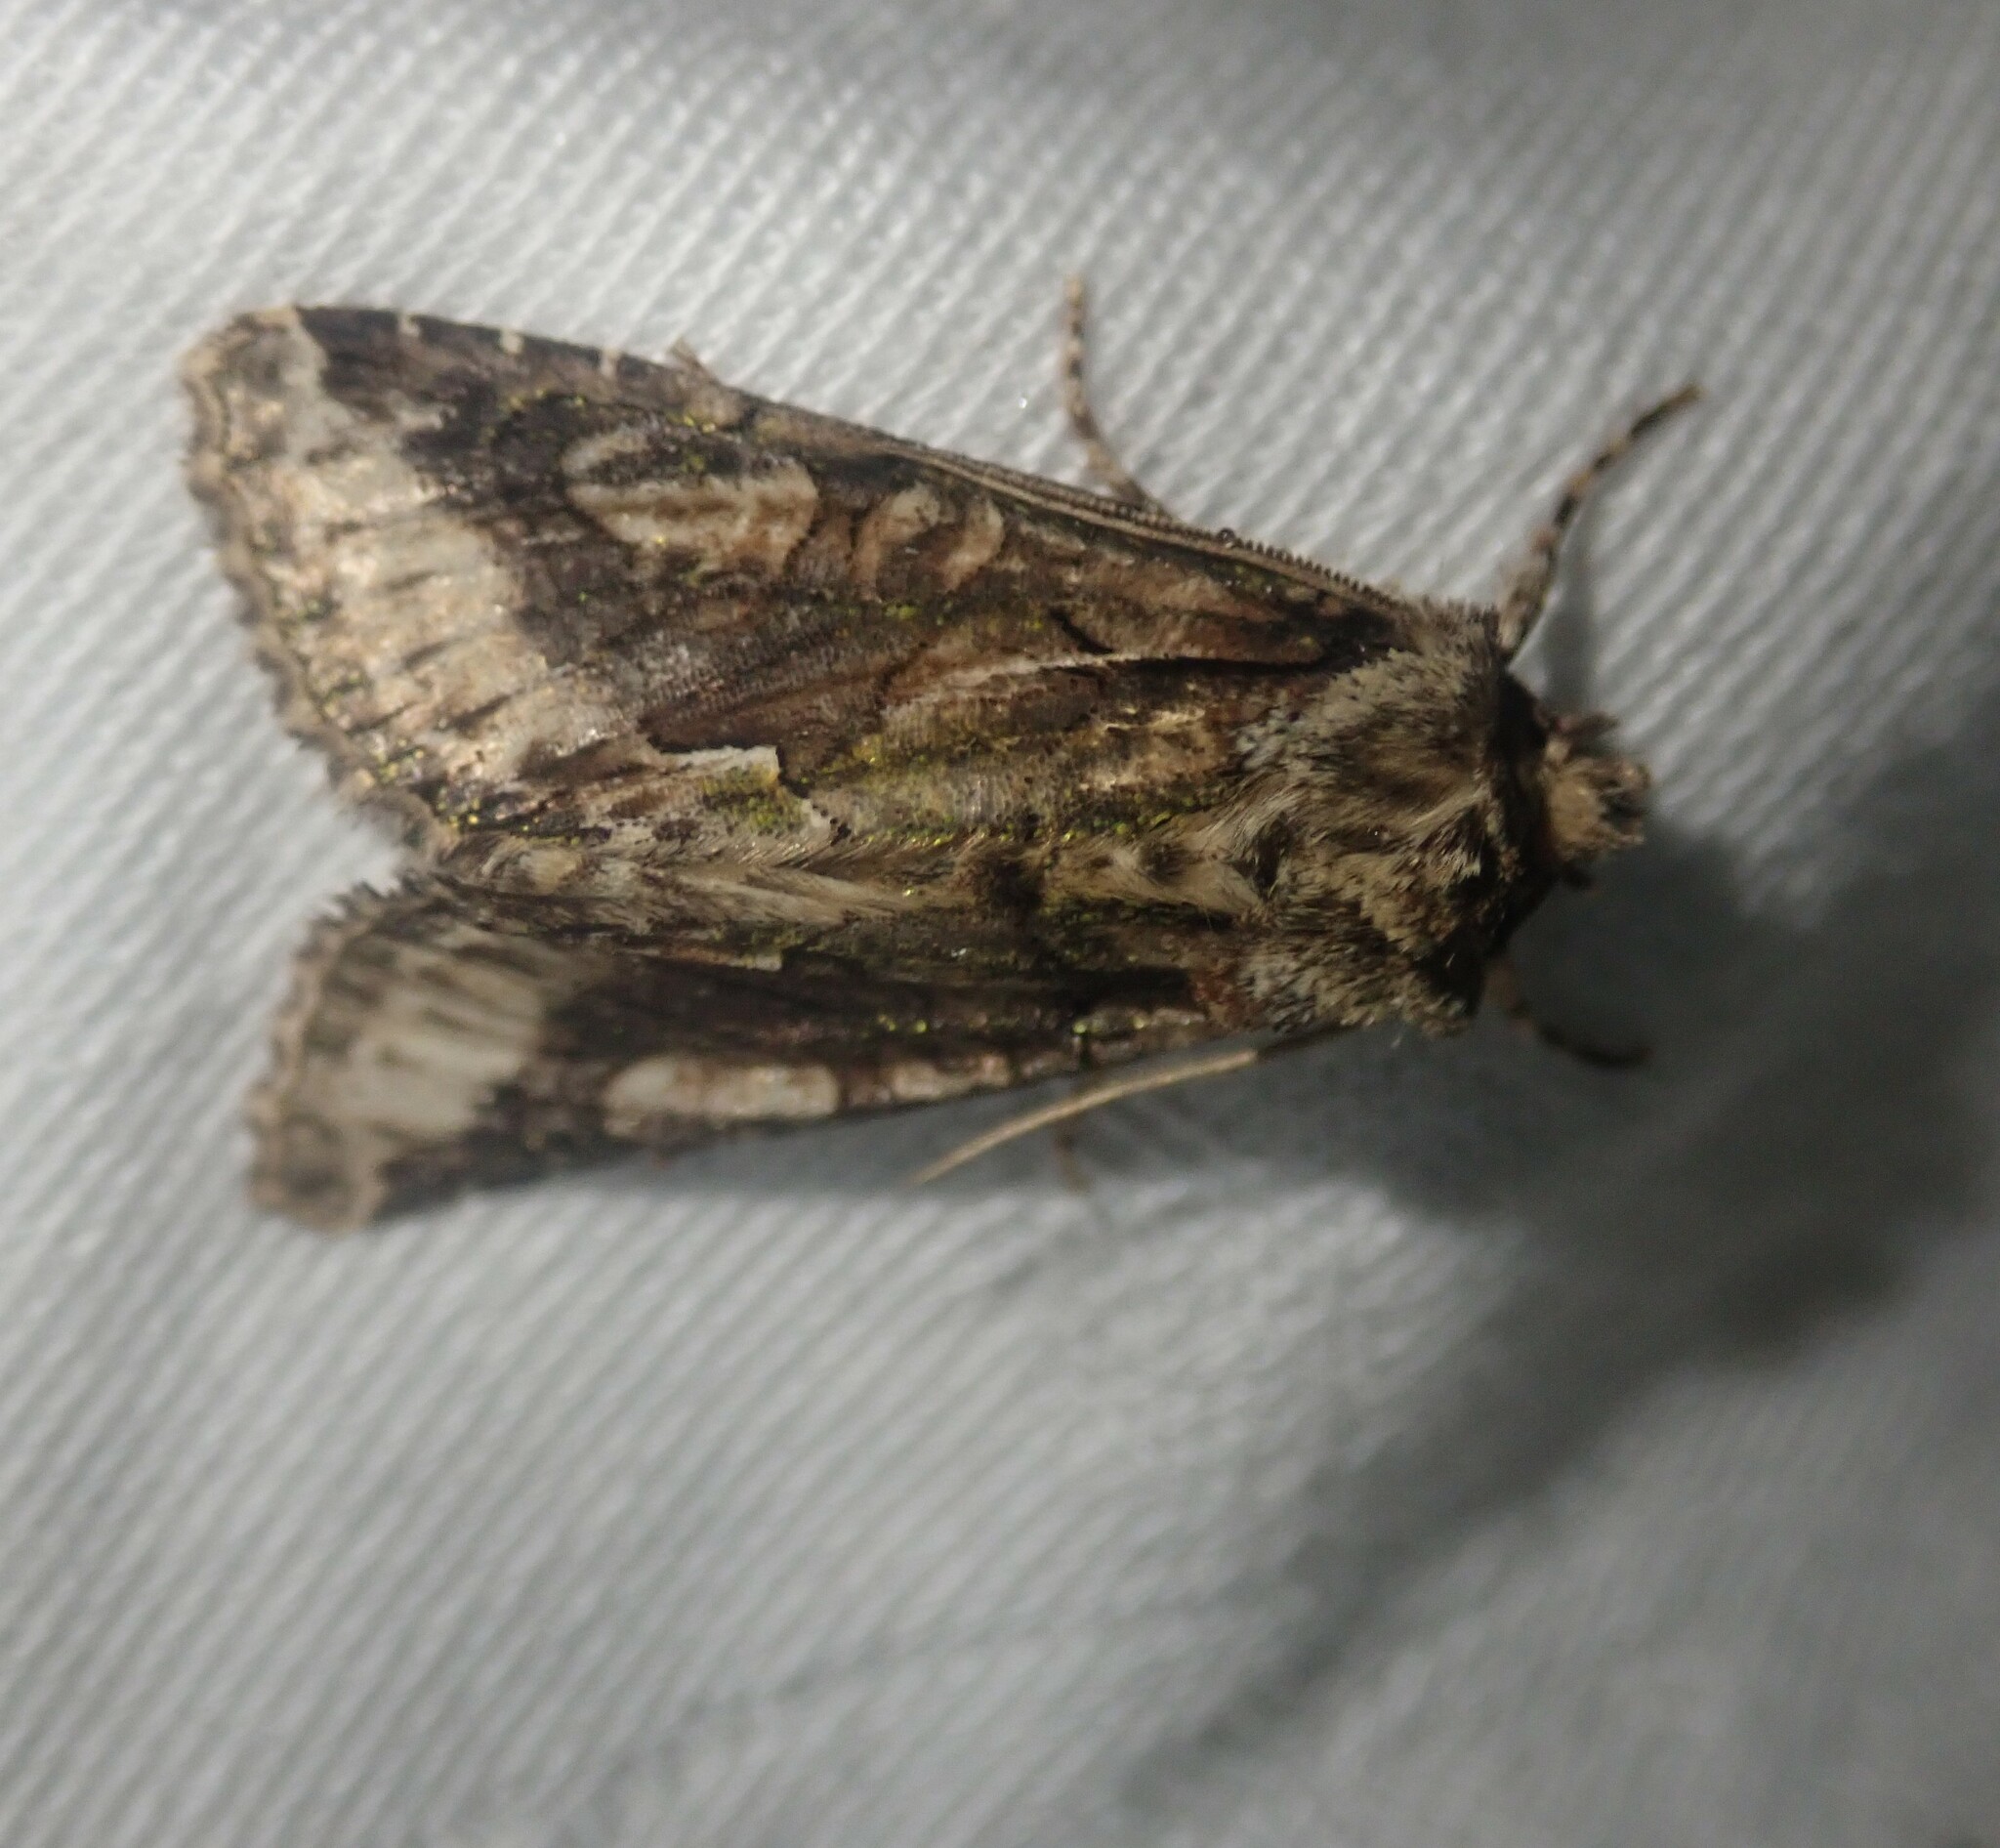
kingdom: Animalia
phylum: Arthropoda
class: Insecta
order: Lepidoptera
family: Noctuidae
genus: Allophyes
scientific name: Allophyes oxyacanthae
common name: Green-brindled crescent
